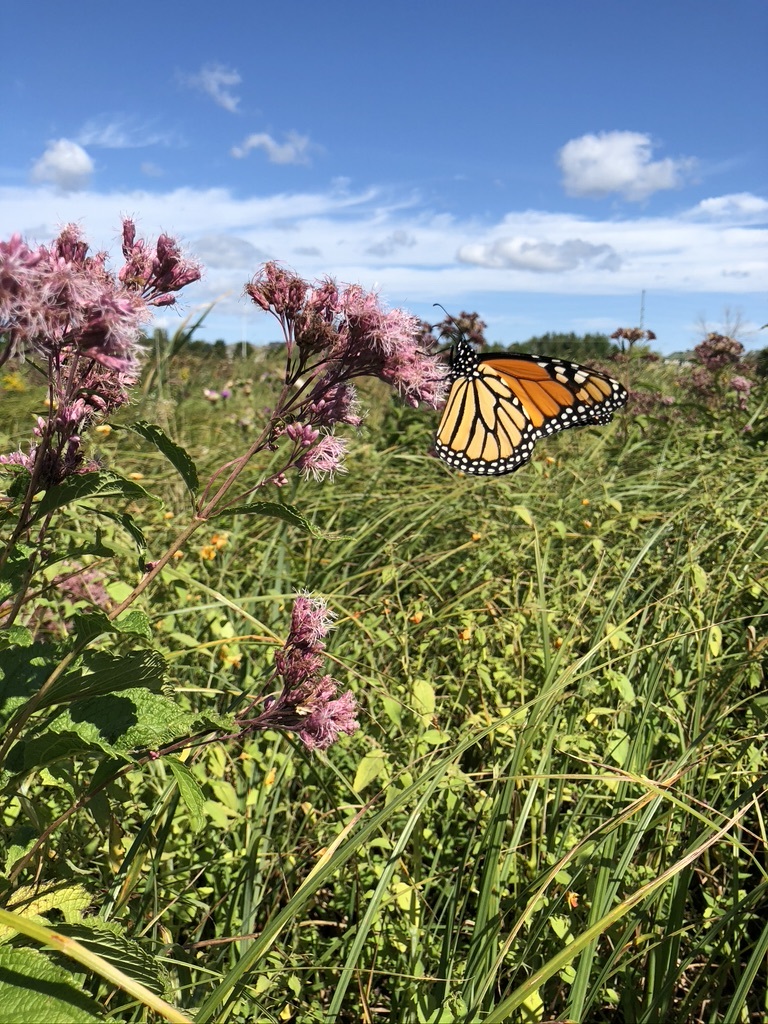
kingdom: Animalia
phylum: Arthropoda
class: Insecta
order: Lepidoptera
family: Nymphalidae
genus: Danaus
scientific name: Danaus plexippus
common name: Monarch
